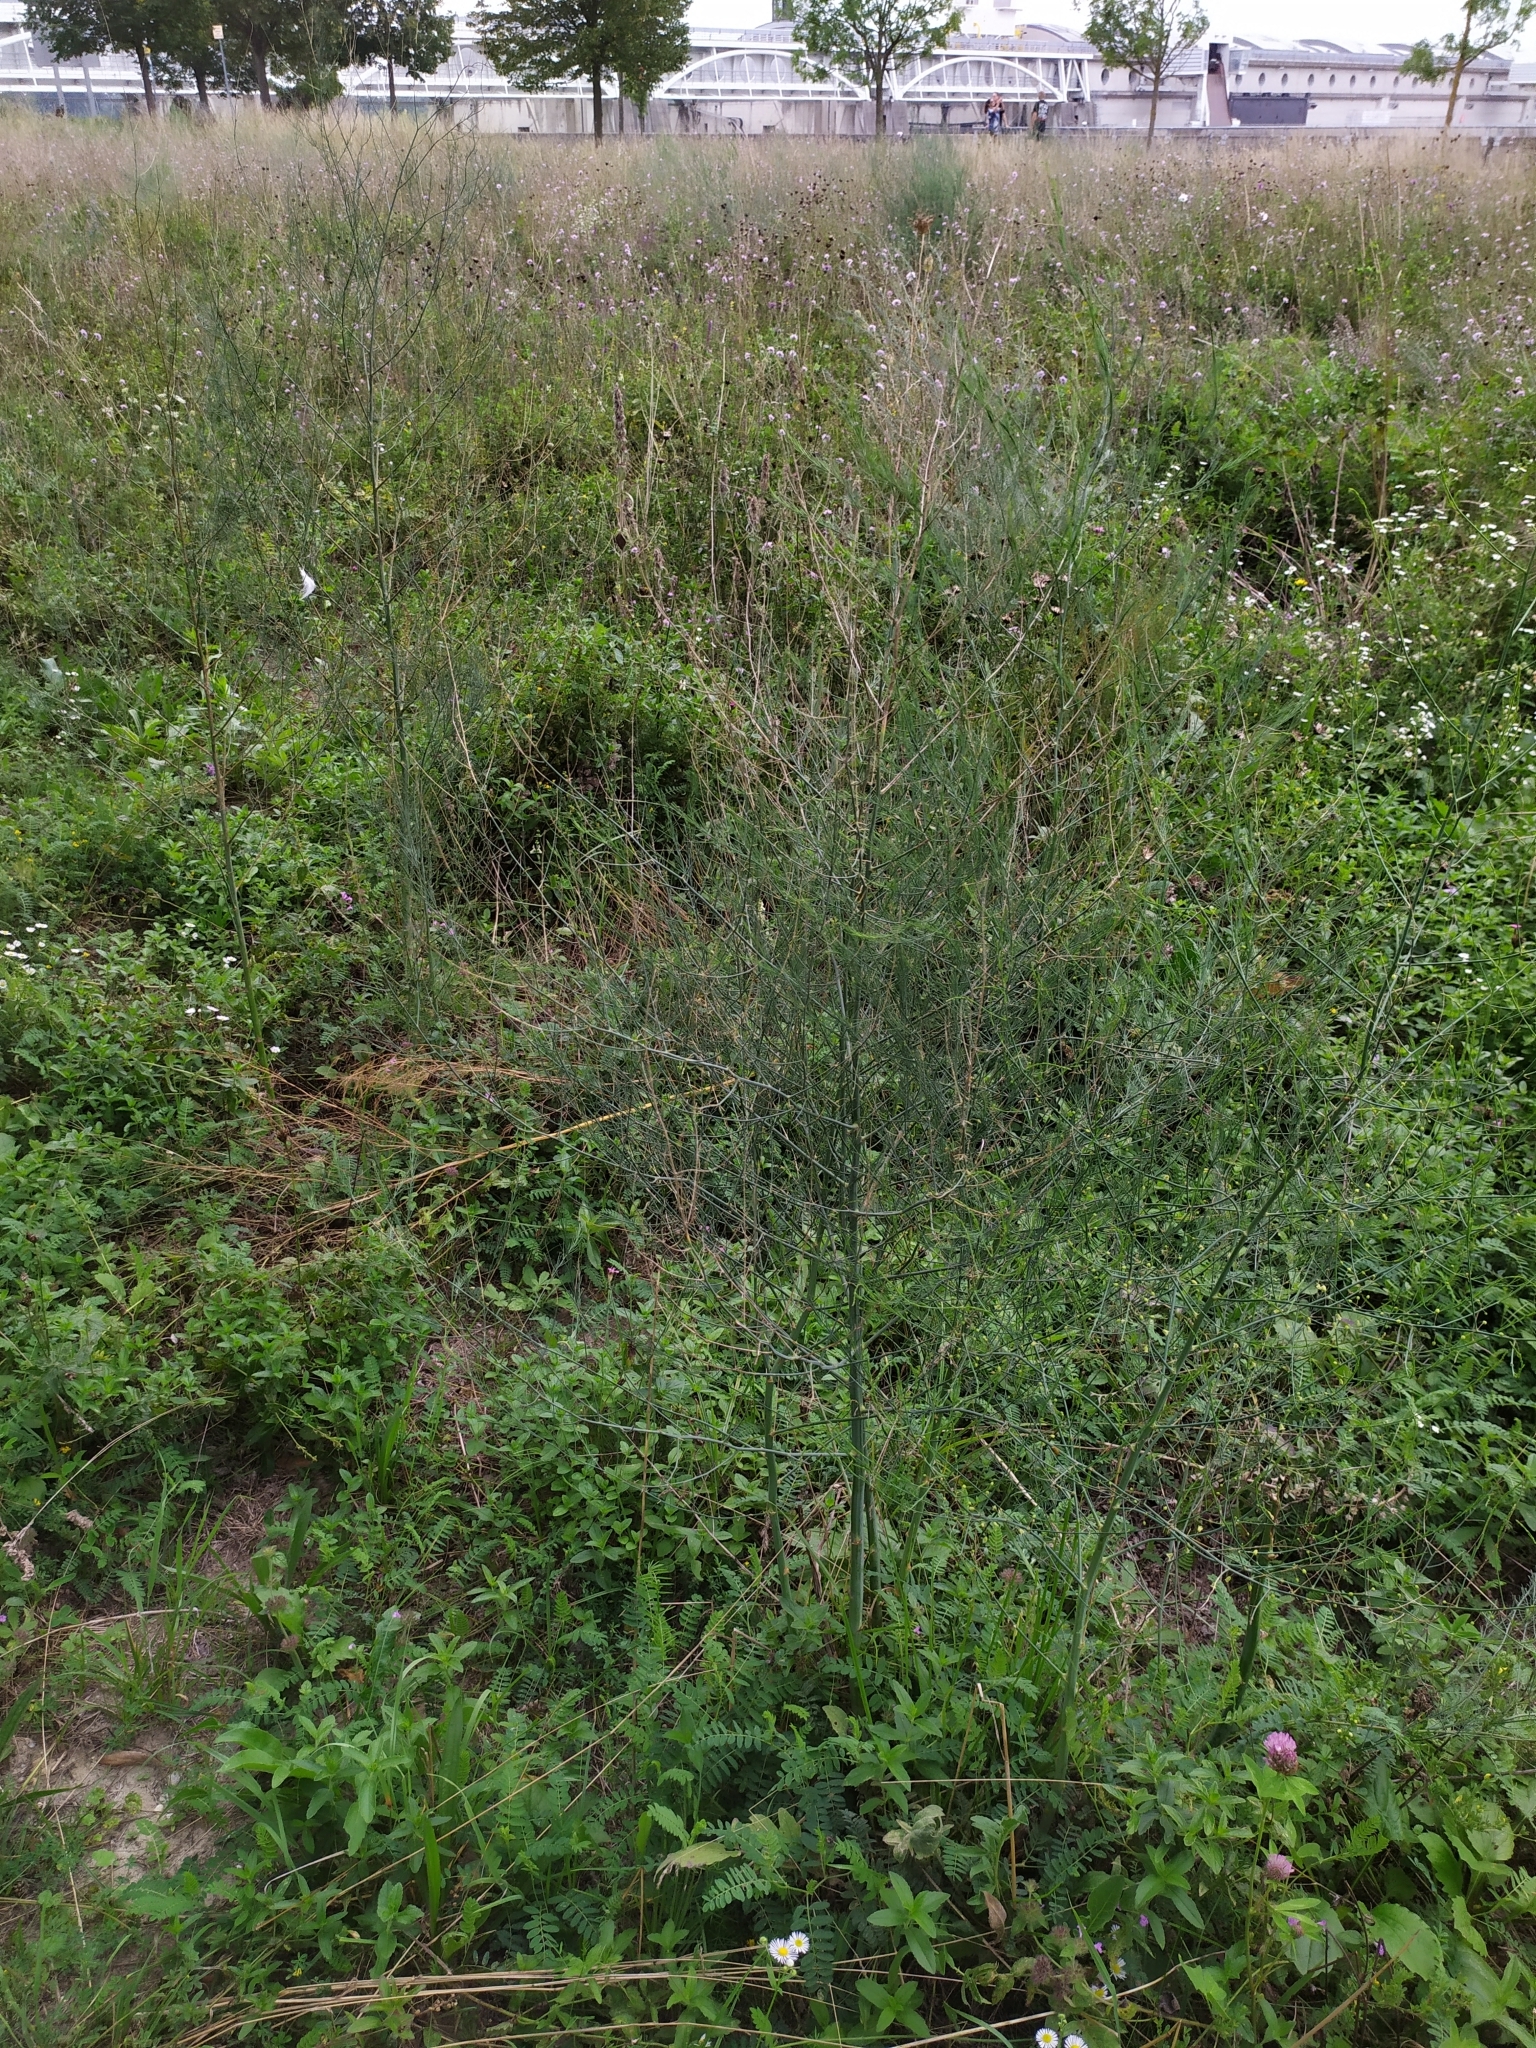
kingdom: Plantae
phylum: Tracheophyta
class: Liliopsida
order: Asparagales
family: Asparagaceae
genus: Asparagus
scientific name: Asparagus officinalis
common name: Garden asparagus
